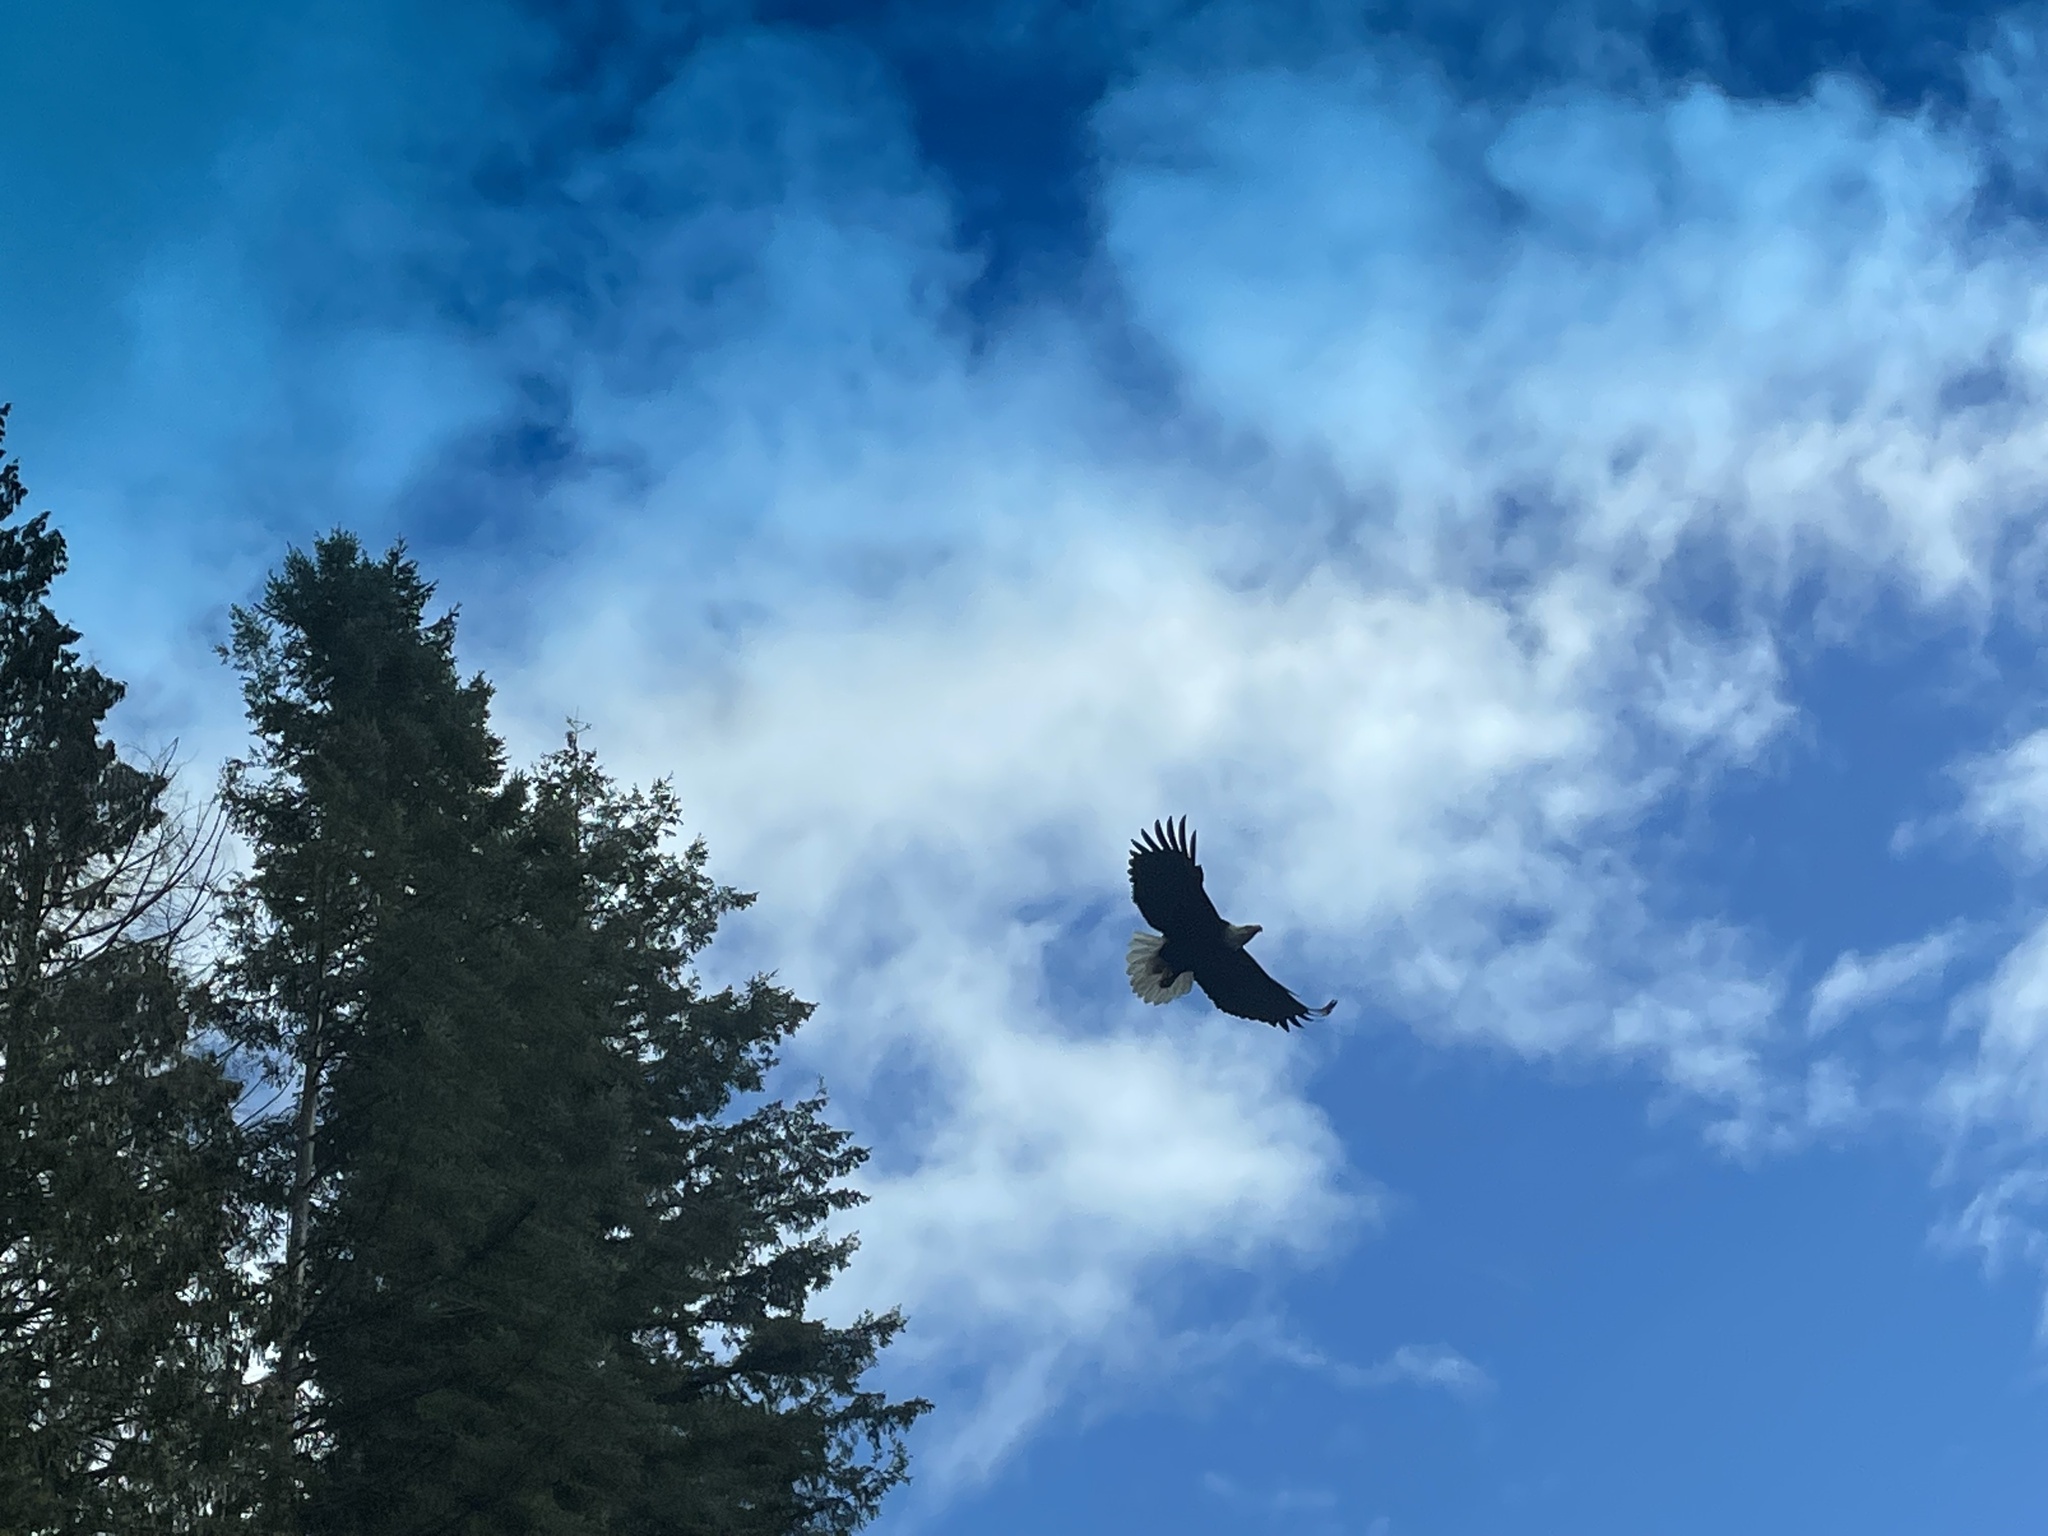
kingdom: Animalia
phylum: Chordata
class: Aves
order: Accipitriformes
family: Accipitridae
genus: Haliaeetus
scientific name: Haliaeetus leucocephalus
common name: Bald eagle
